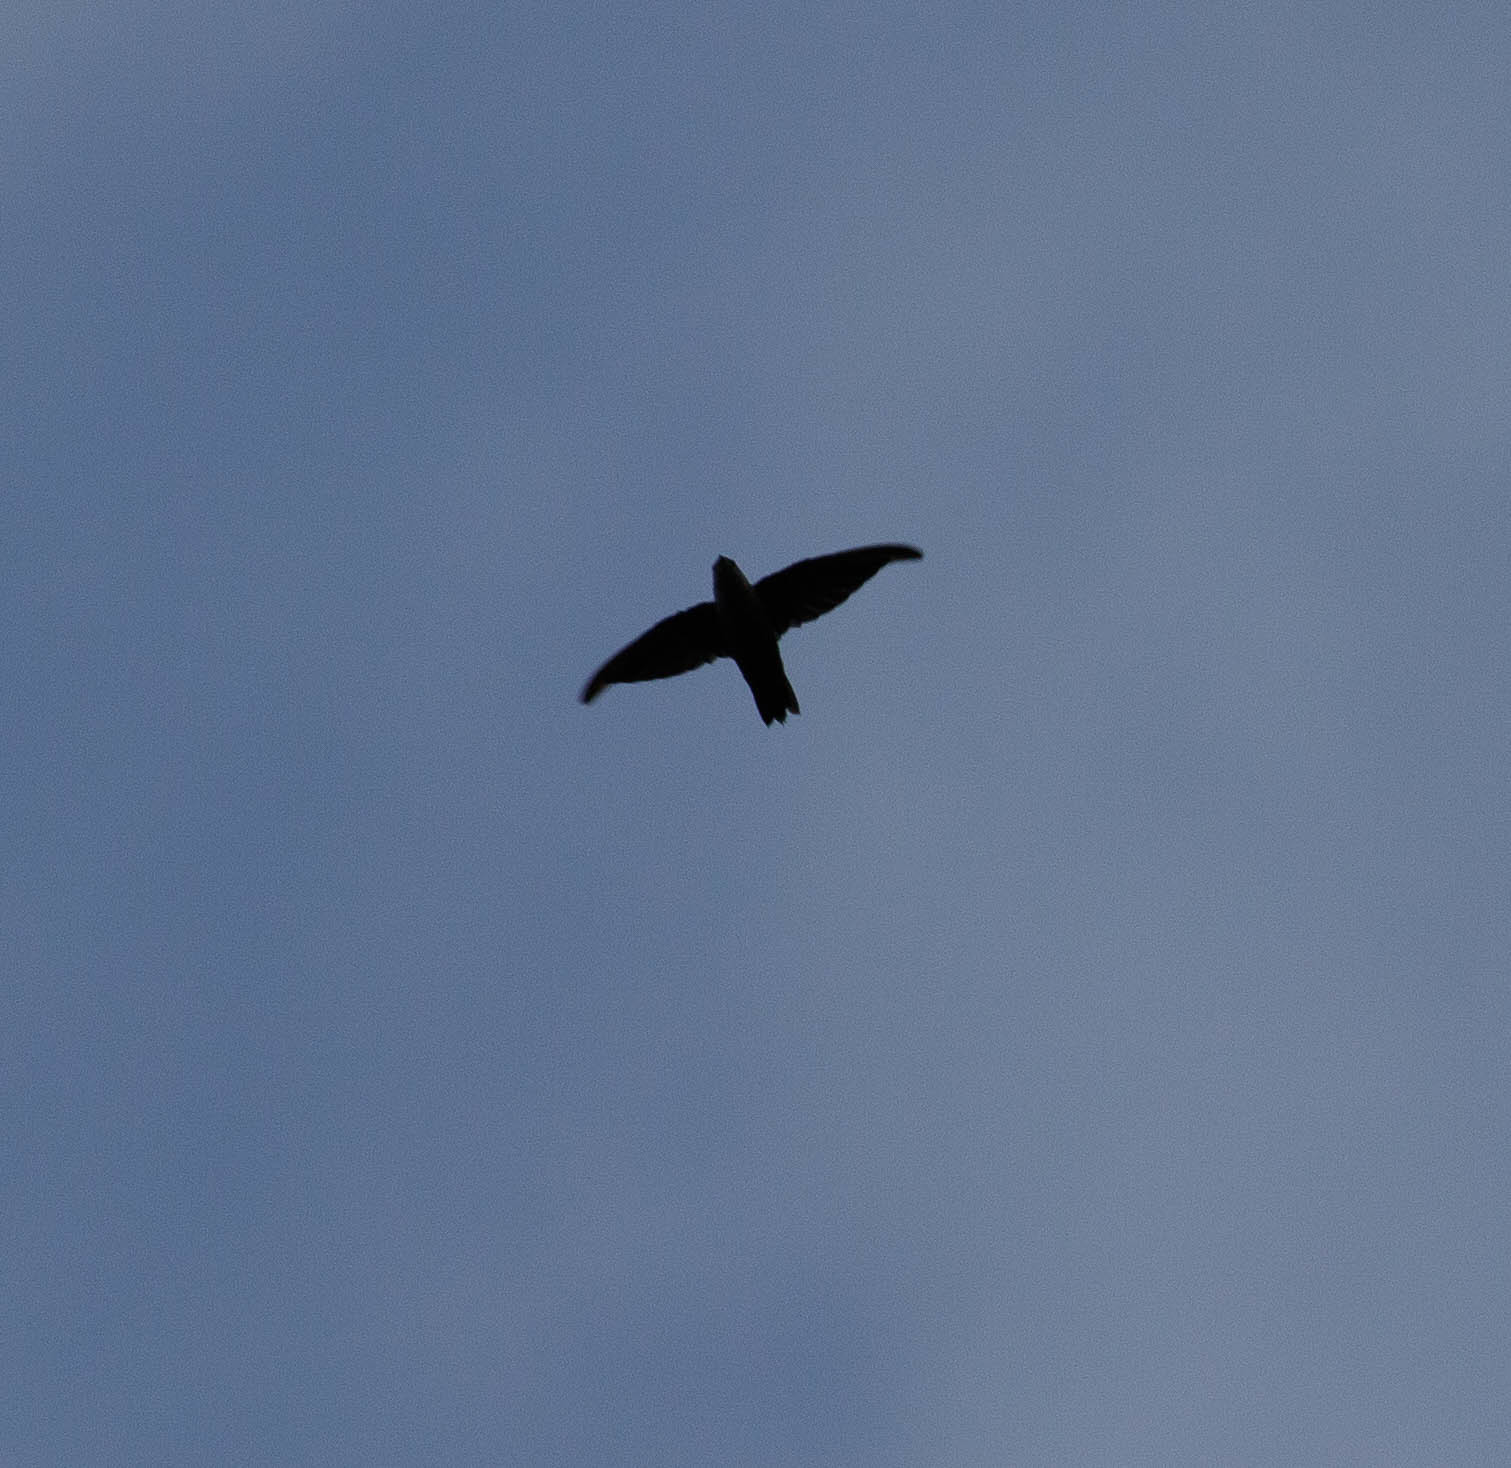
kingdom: Animalia
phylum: Chordata
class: Aves
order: Apodiformes
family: Apodidae
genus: Chaetura
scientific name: Chaetura pelagica
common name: Chimney swift
